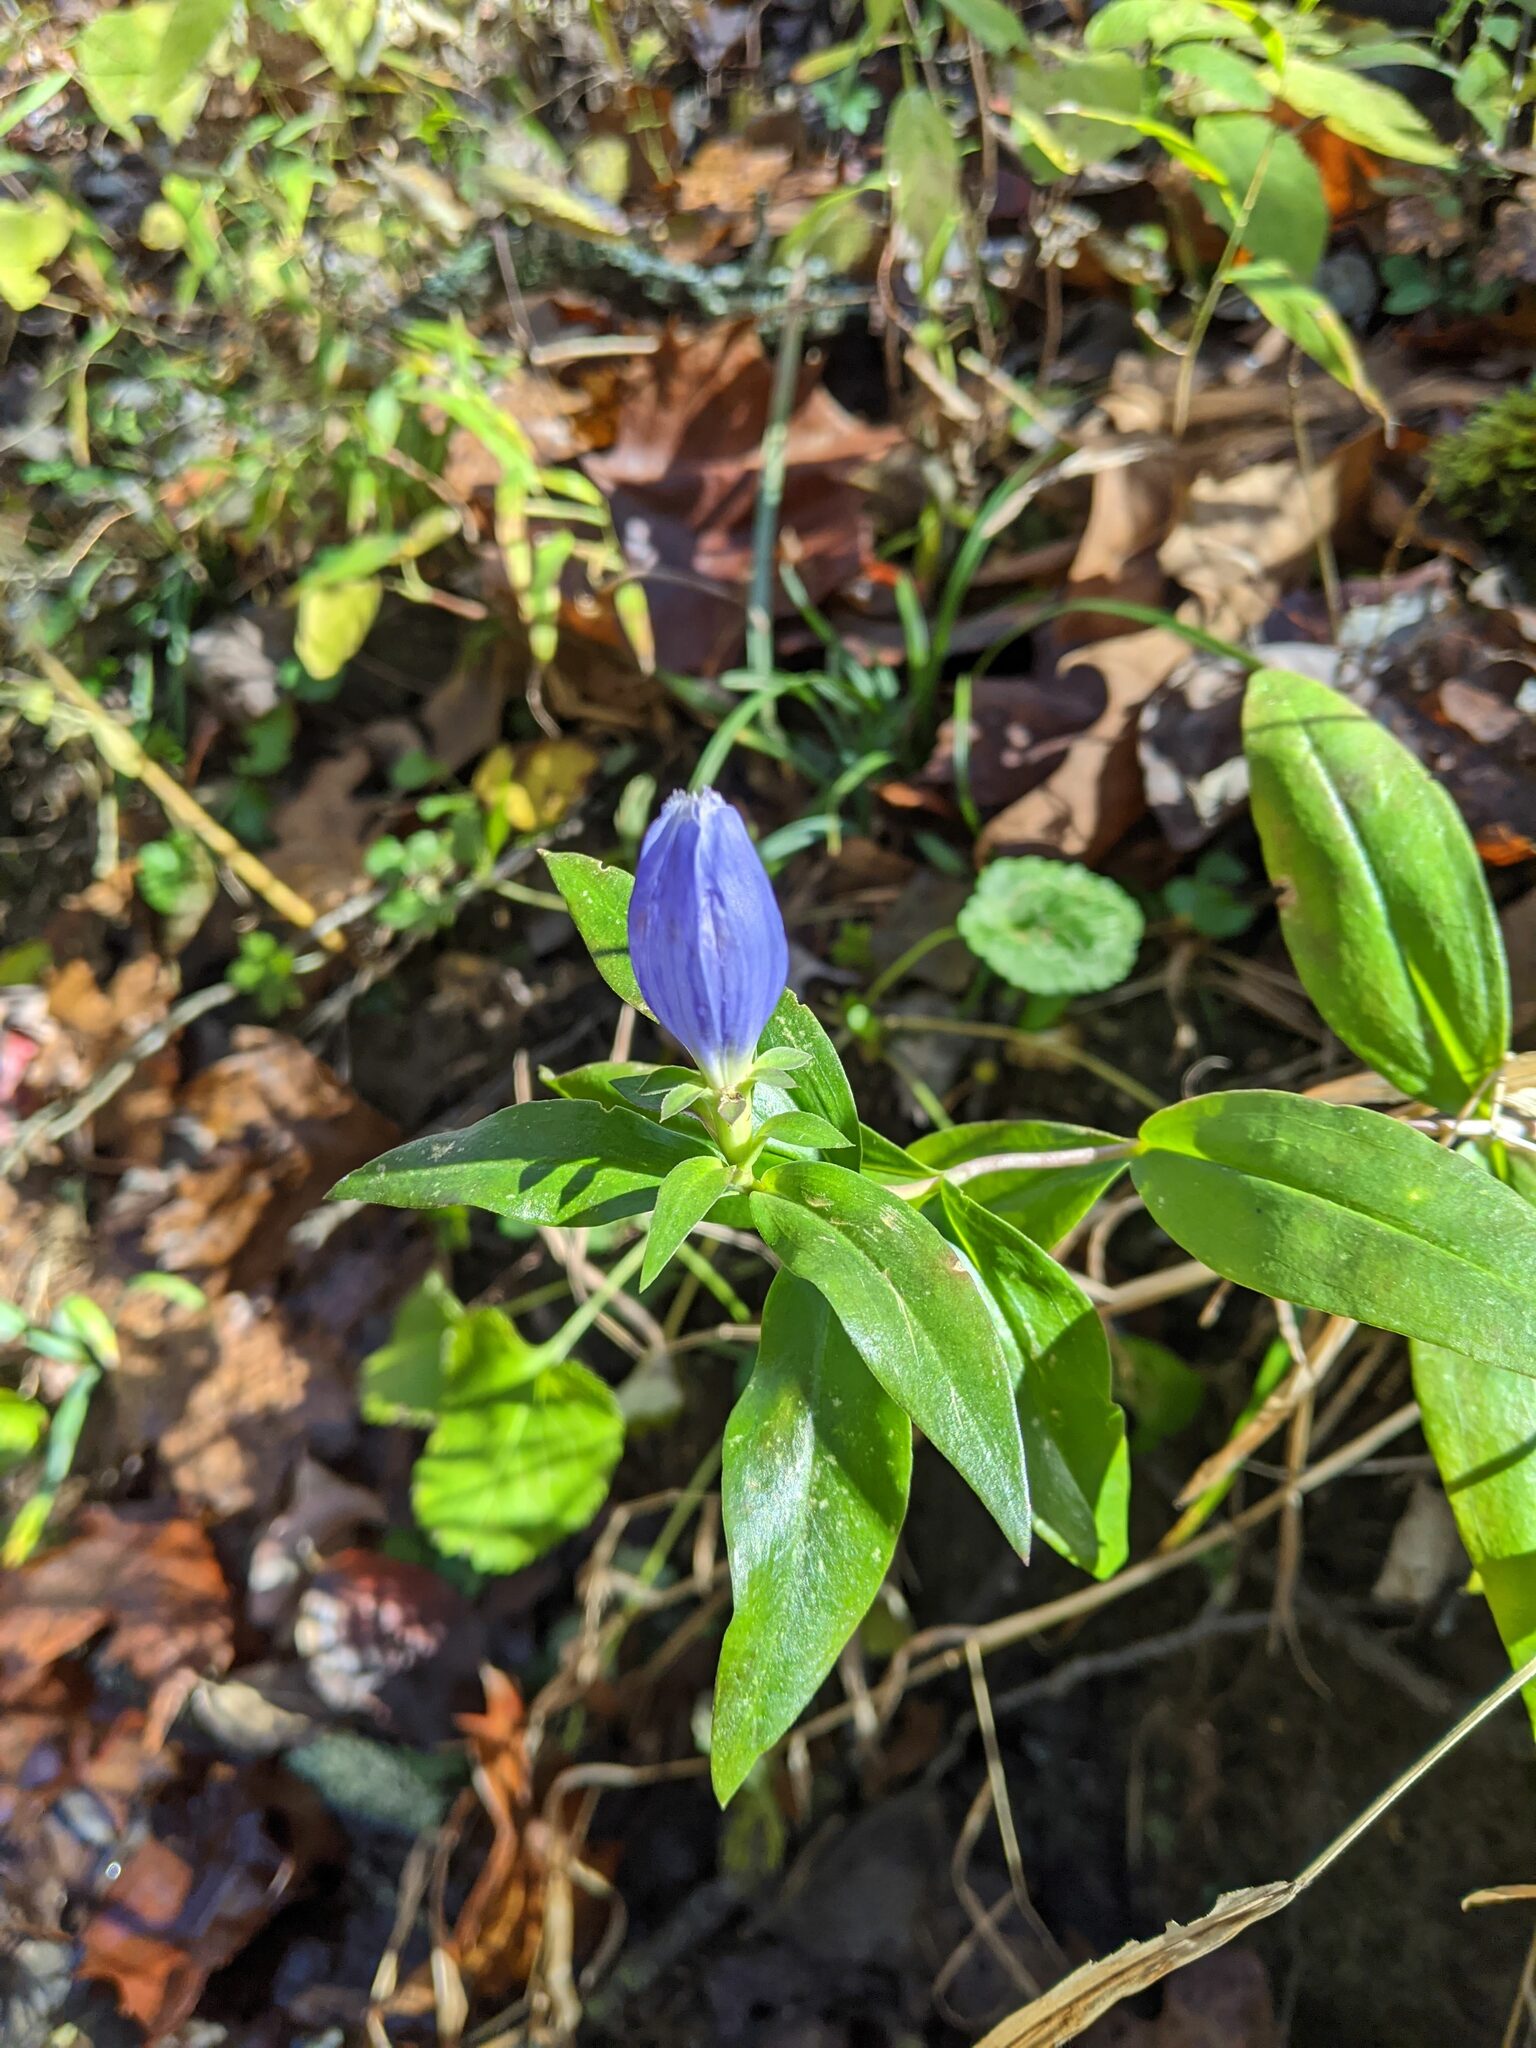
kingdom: Plantae
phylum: Tracheophyta
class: Magnoliopsida
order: Gentianales
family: Gentianaceae
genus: Gentiana
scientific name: Gentiana andrewsii
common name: Bottle gentian
